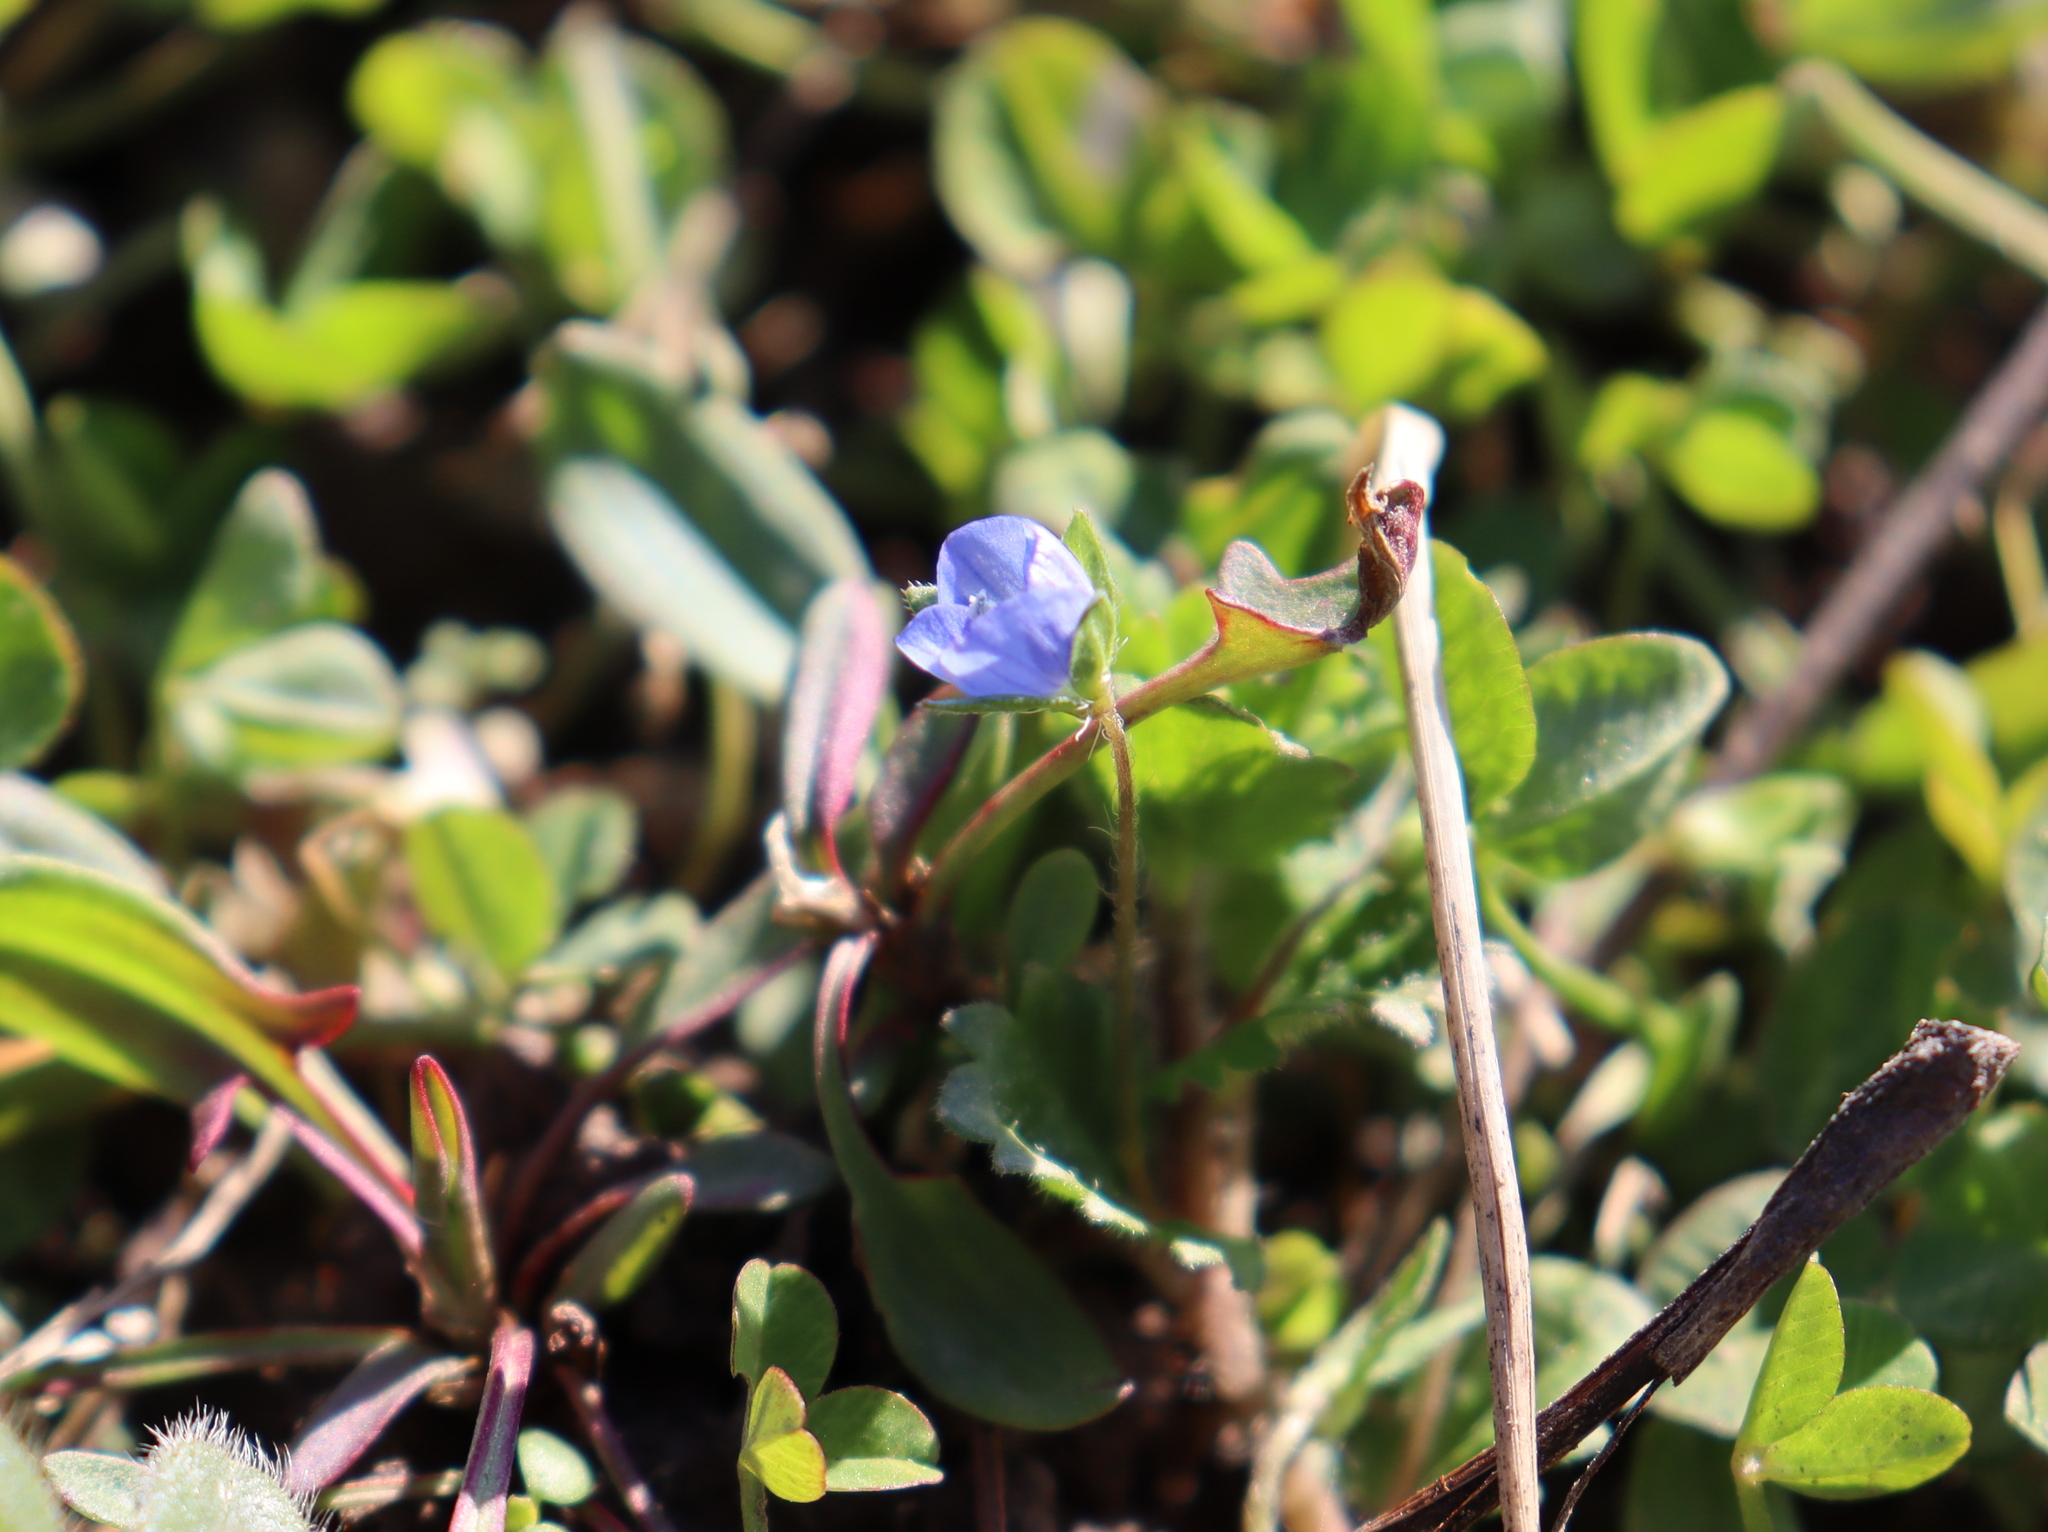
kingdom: Plantae
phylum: Tracheophyta
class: Magnoliopsida
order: Lamiales
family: Plantaginaceae
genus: Veronica
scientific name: Veronica persica
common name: Common field-speedwell
